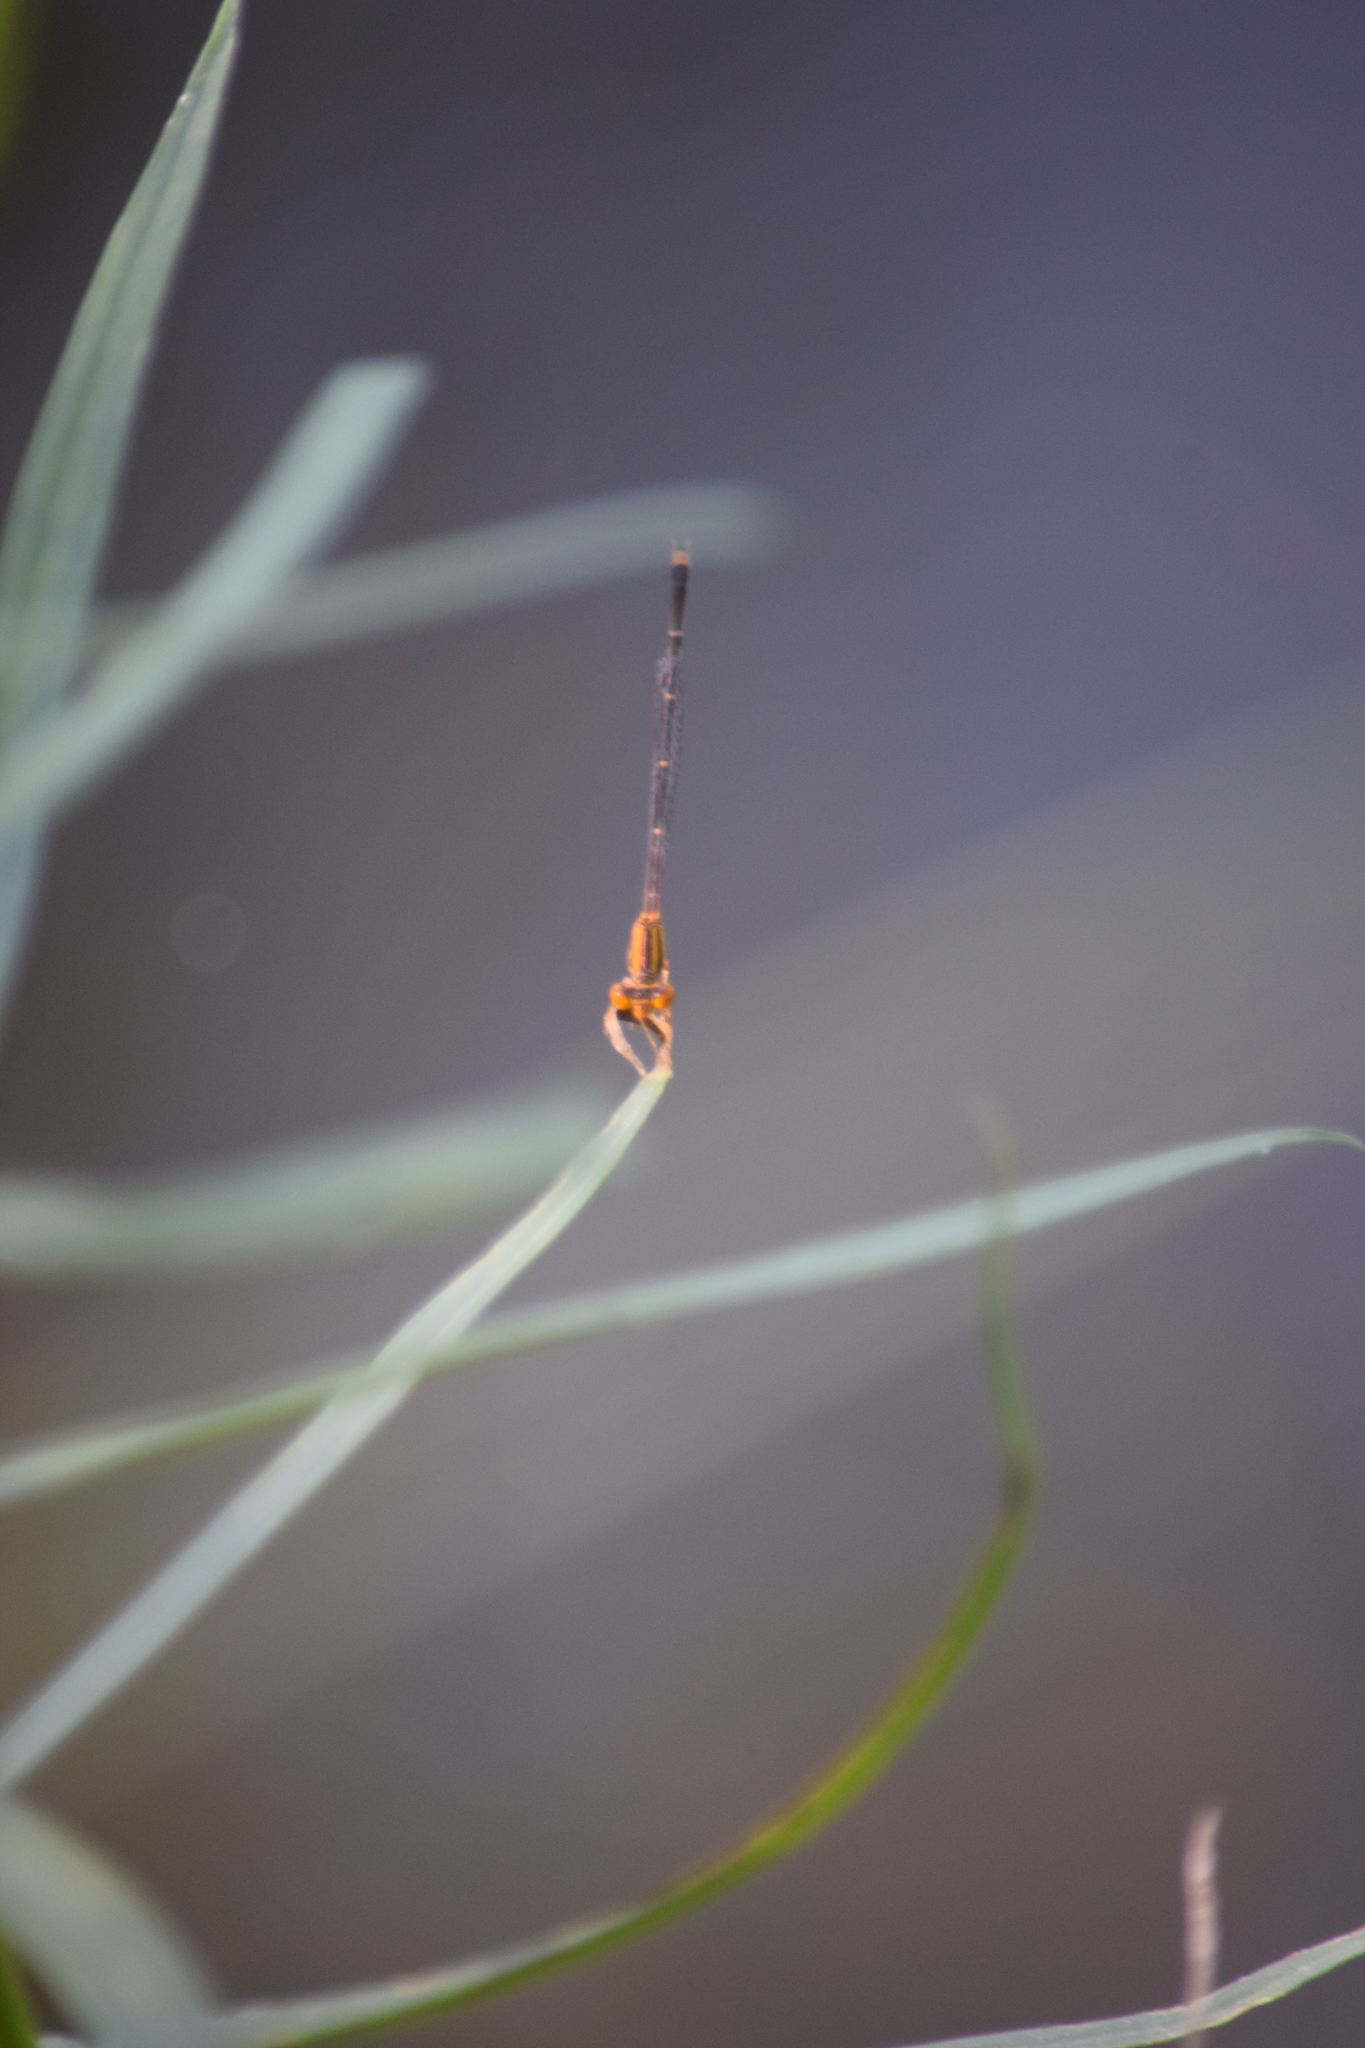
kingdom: Animalia
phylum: Arthropoda
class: Insecta
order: Odonata
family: Coenagrionidae
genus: Enallagma
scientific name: Enallagma signatum
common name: Orange bluet
